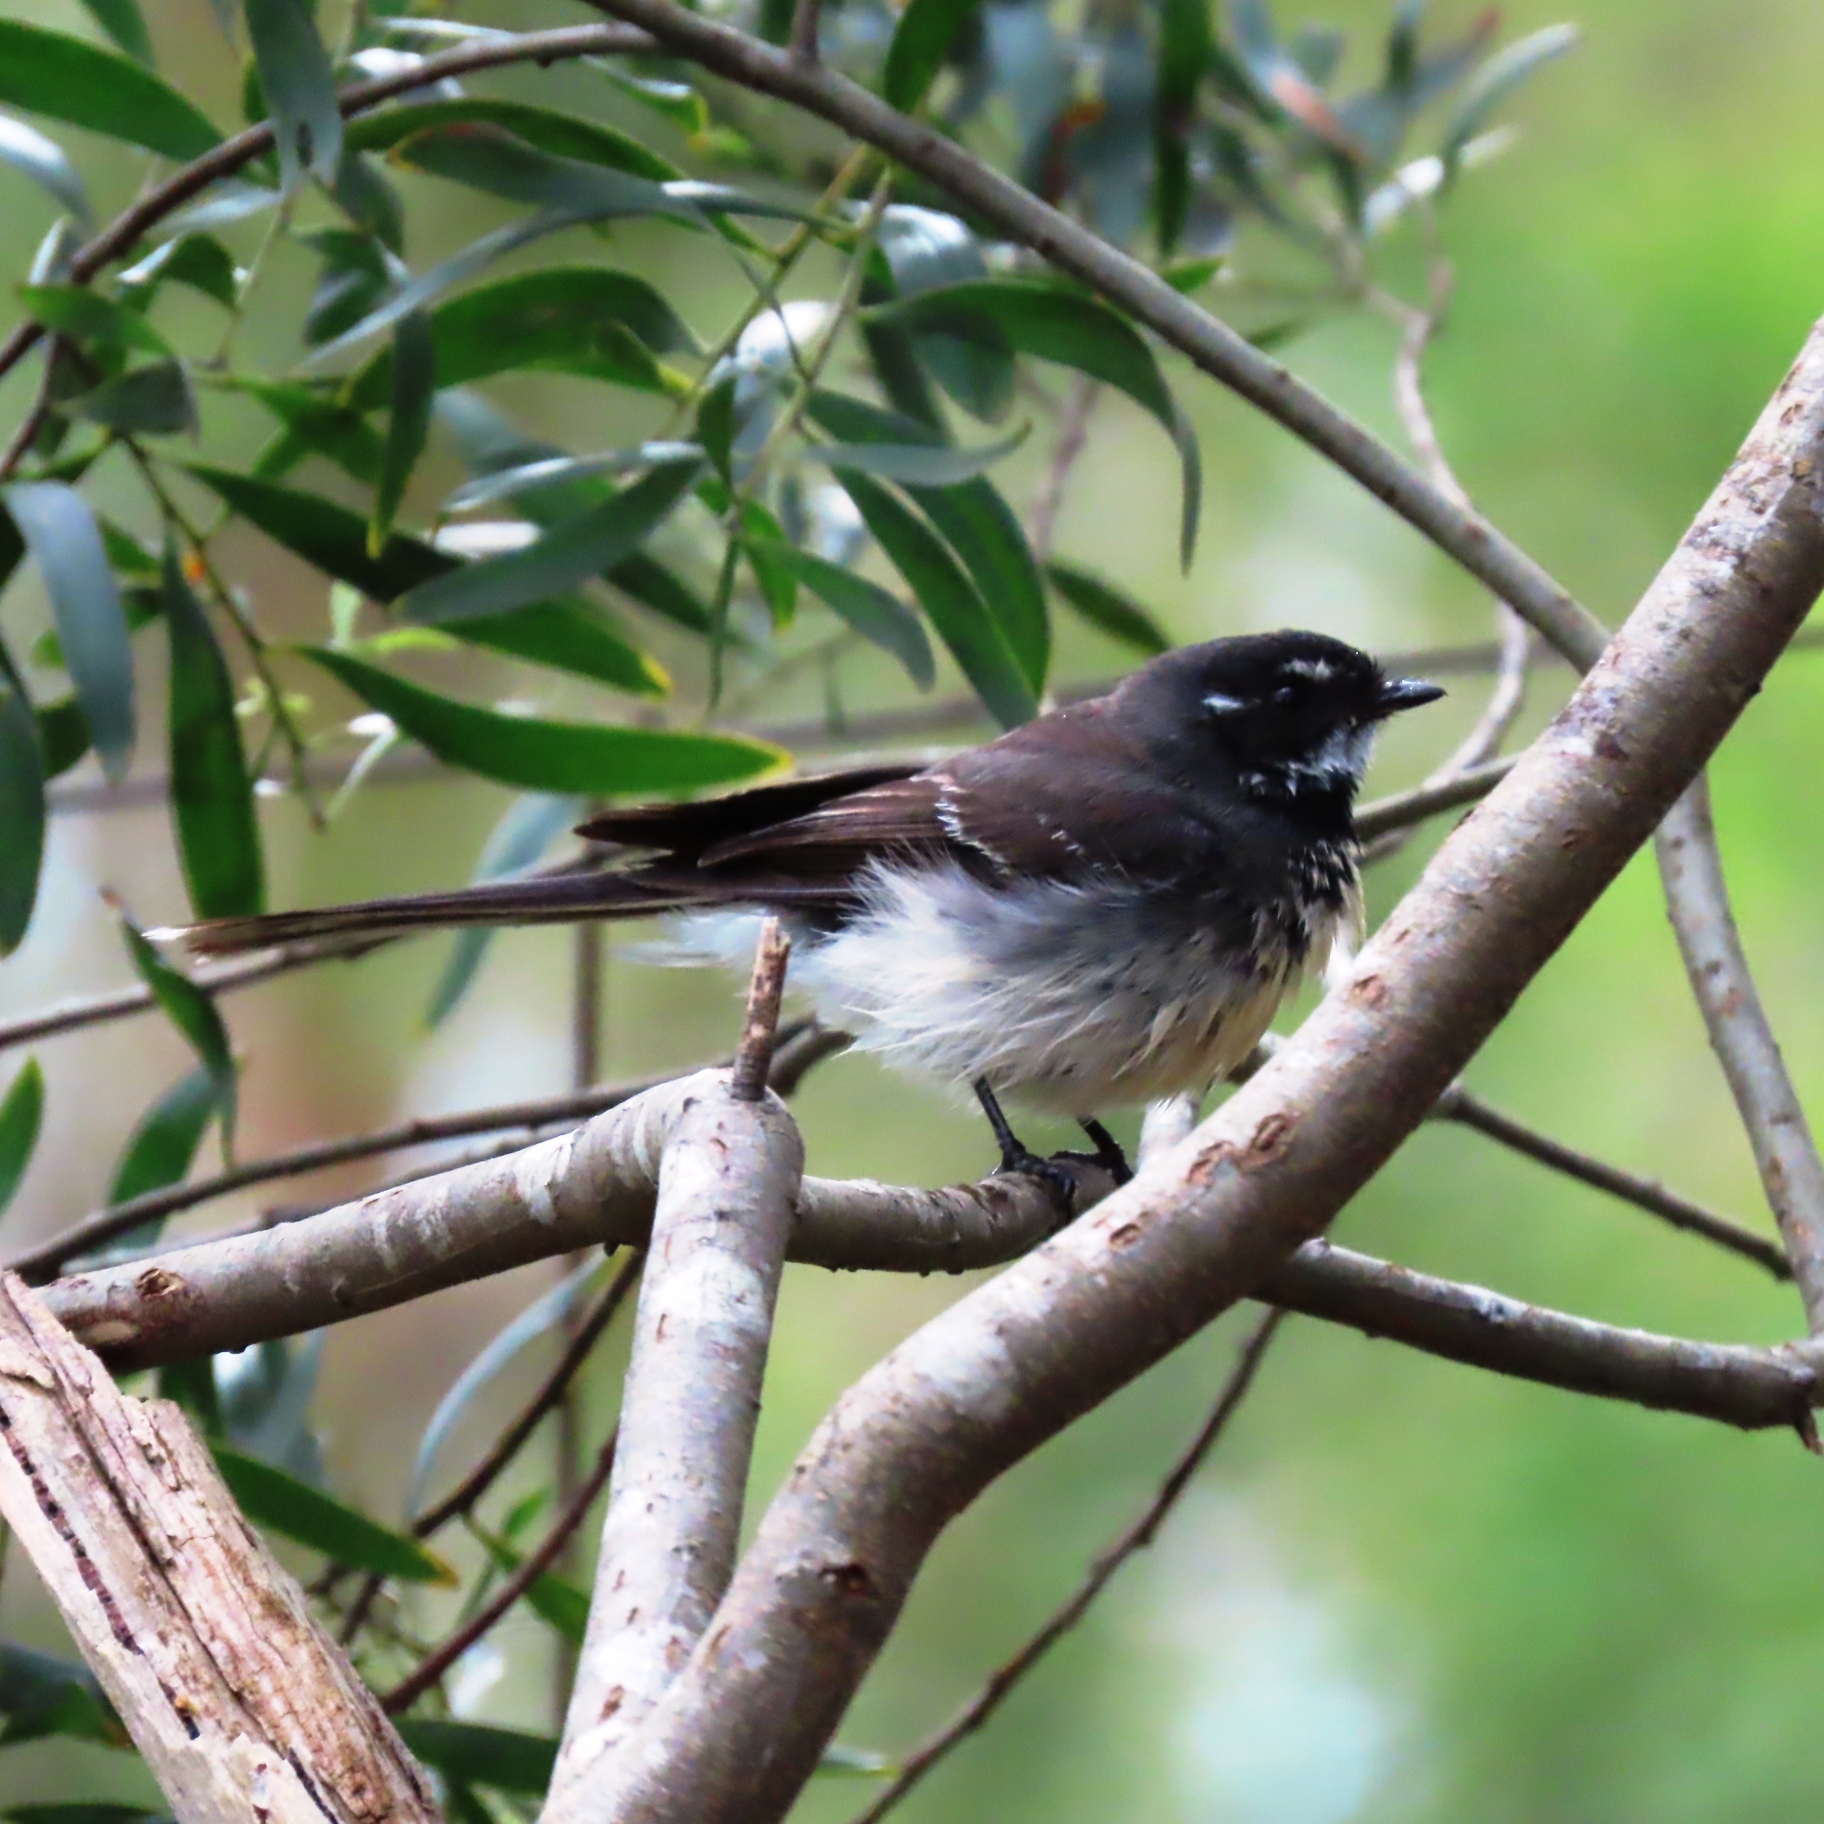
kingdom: Animalia
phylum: Chordata
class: Aves
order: Passeriformes
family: Rhipiduridae
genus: Rhipidura
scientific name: Rhipidura albiscapa
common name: Grey fantail
